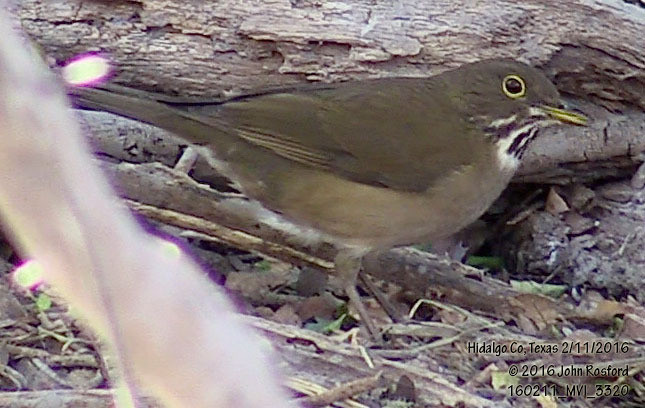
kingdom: Animalia
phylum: Chordata
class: Aves
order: Passeriformes
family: Turdidae
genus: Turdus
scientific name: Turdus assimilis
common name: White-throated thrush
